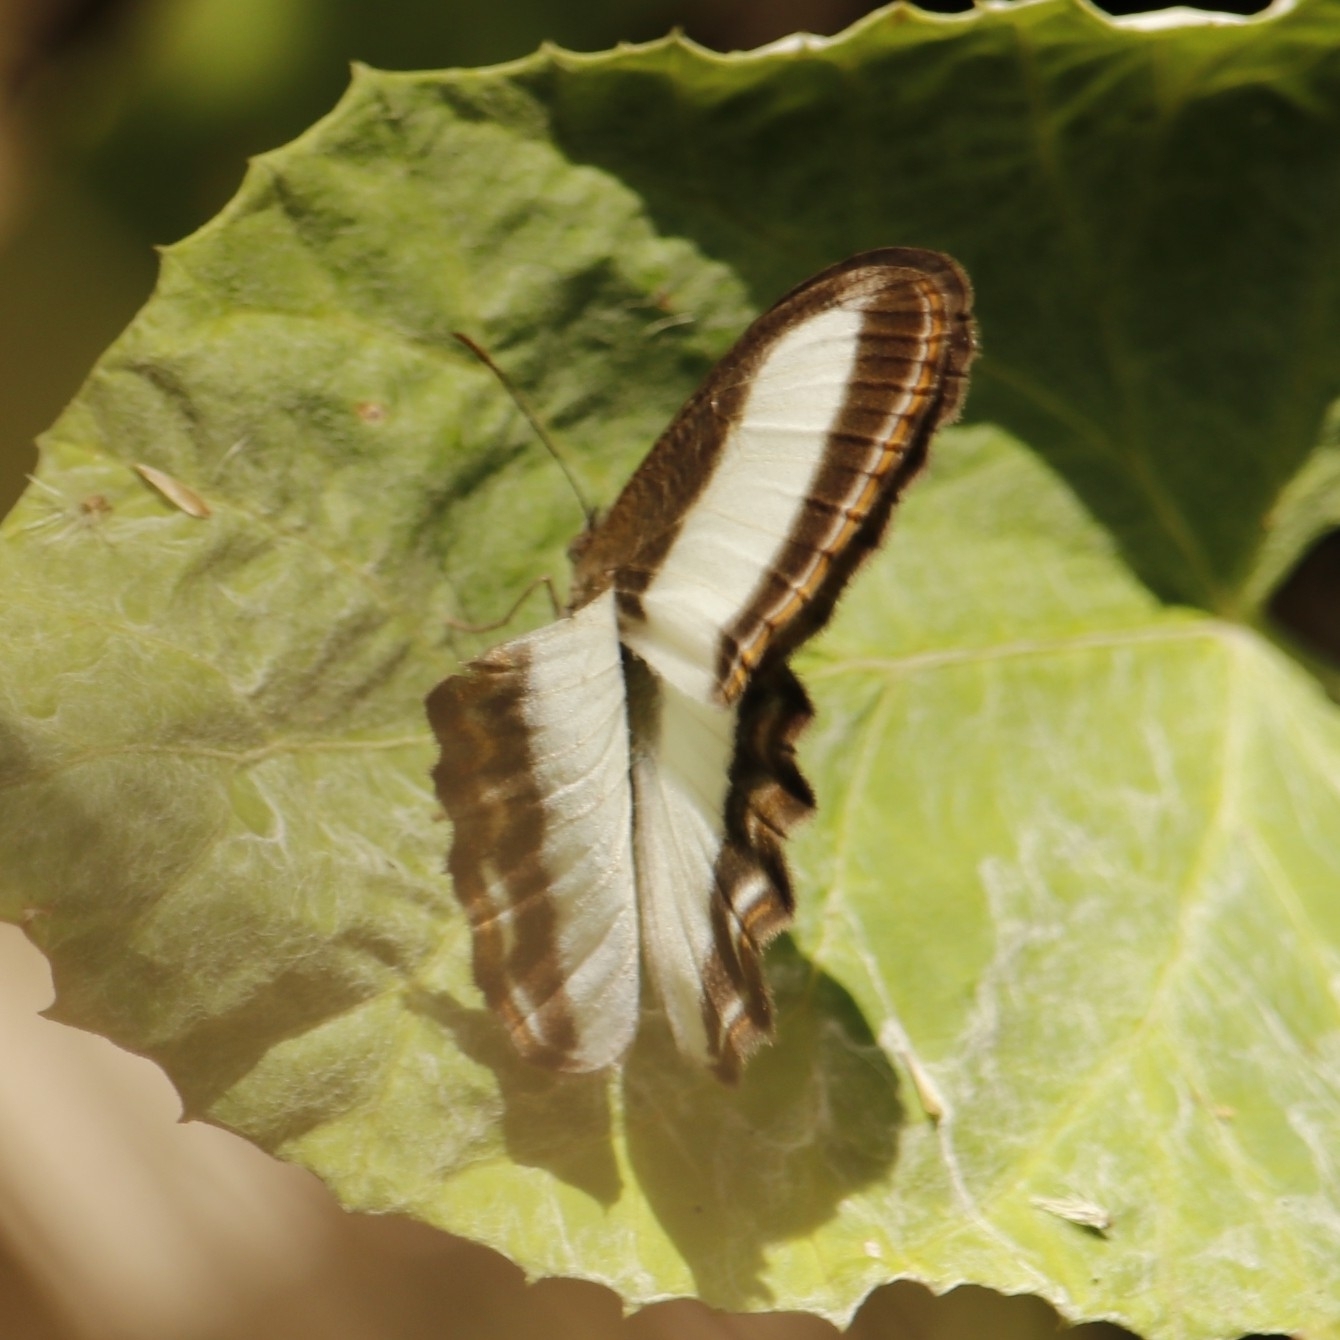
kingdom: Animalia
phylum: Arthropoda
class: Insecta
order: Lepidoptera
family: Nymphalidae
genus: Oressinoma
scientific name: Oressinoma typhla
